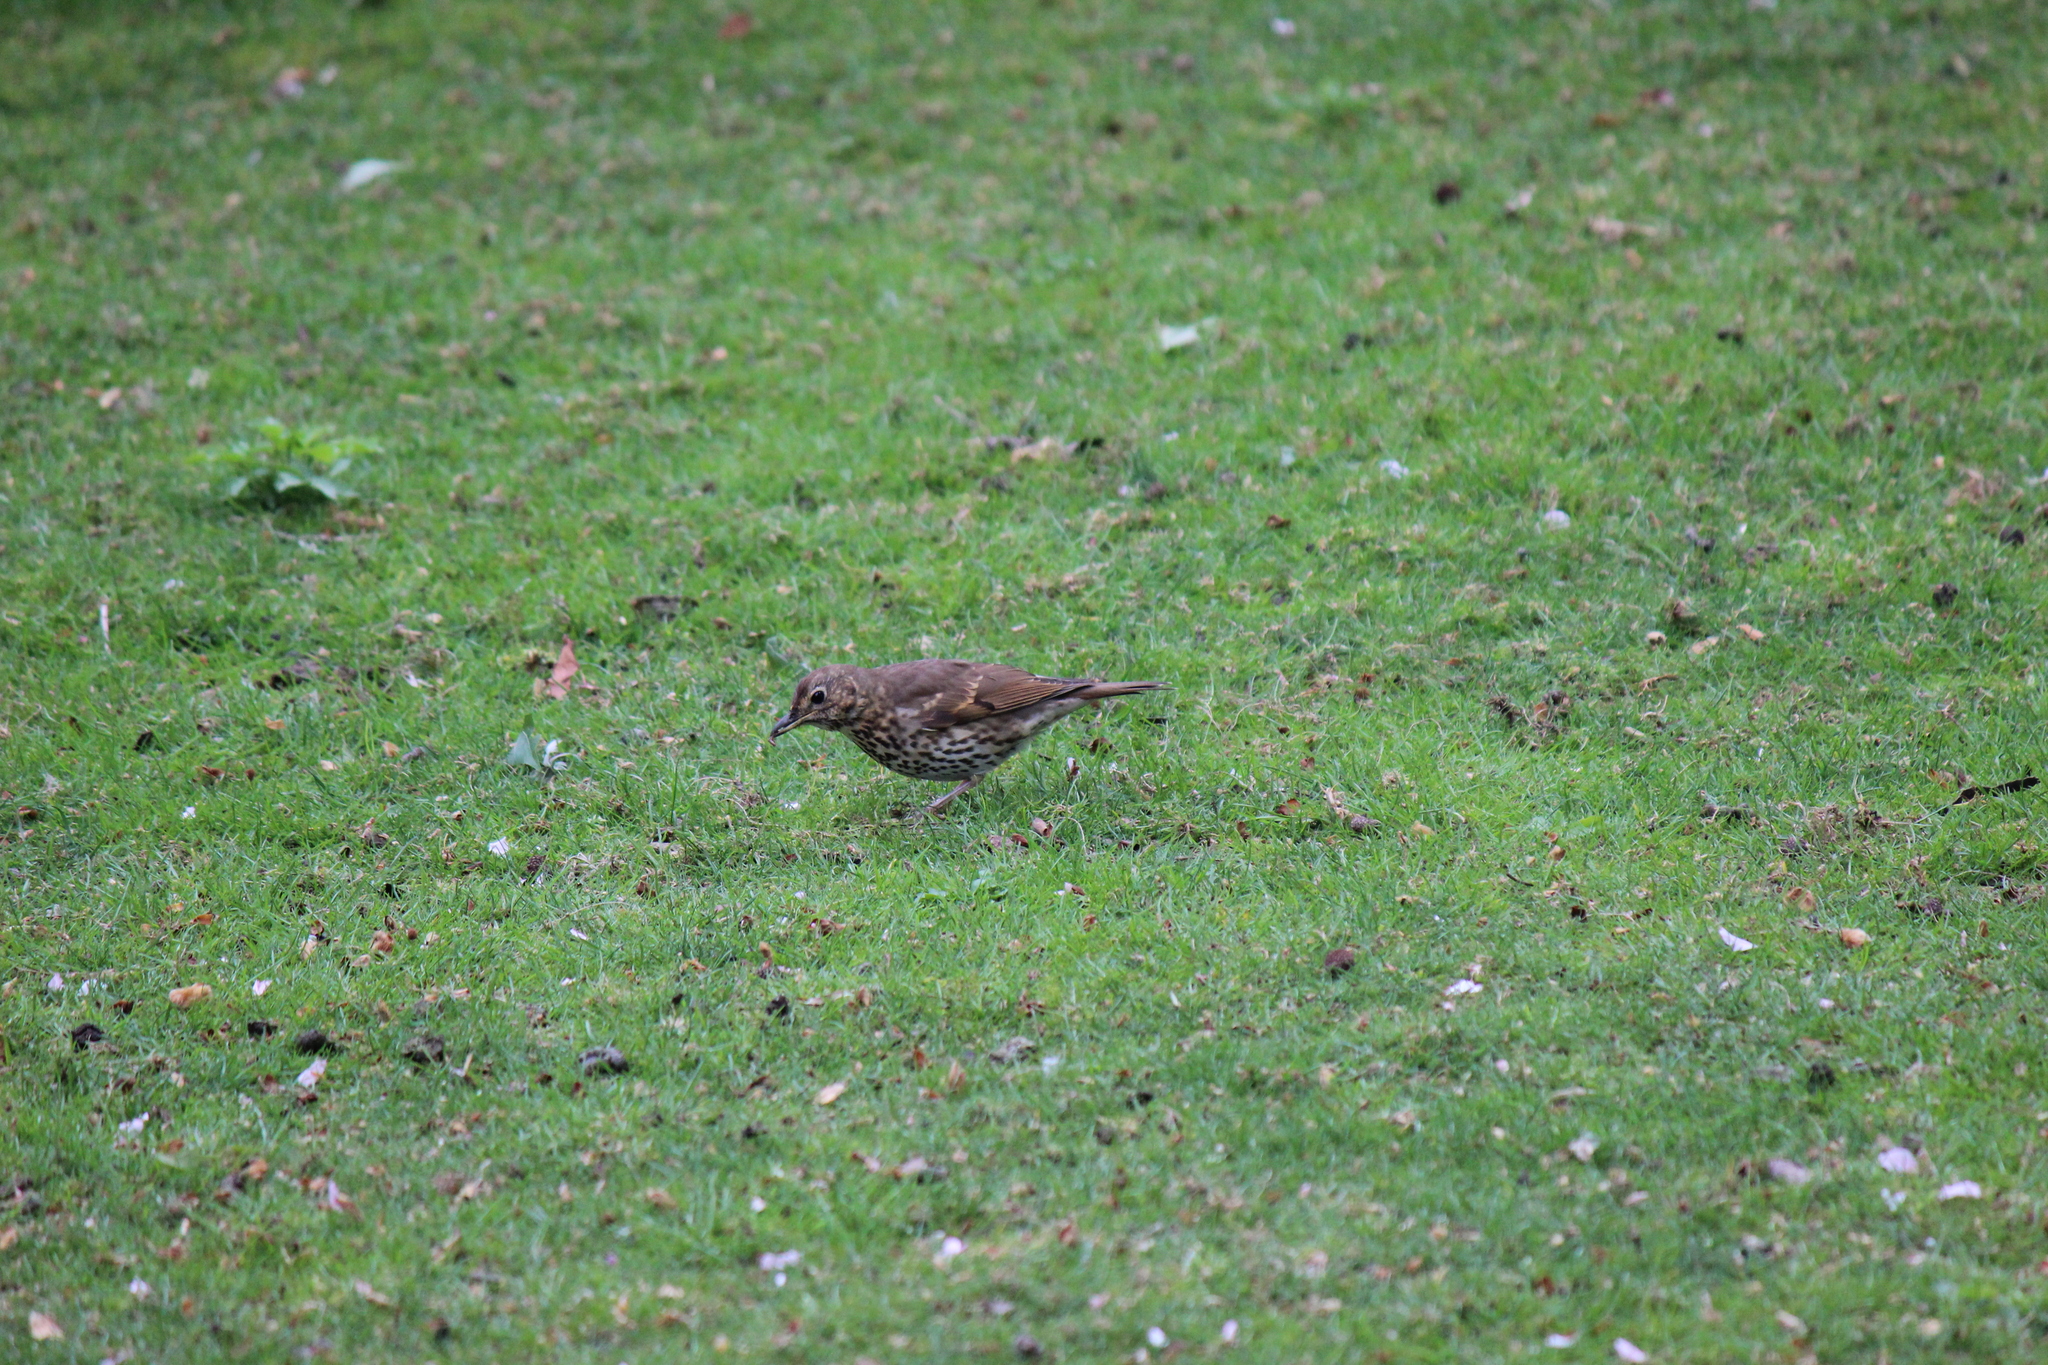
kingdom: Animalia
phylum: Chordata
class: Aves
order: Passeriformes
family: Turdidae
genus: Turdus
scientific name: Turdus philomelos
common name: Song thrush
